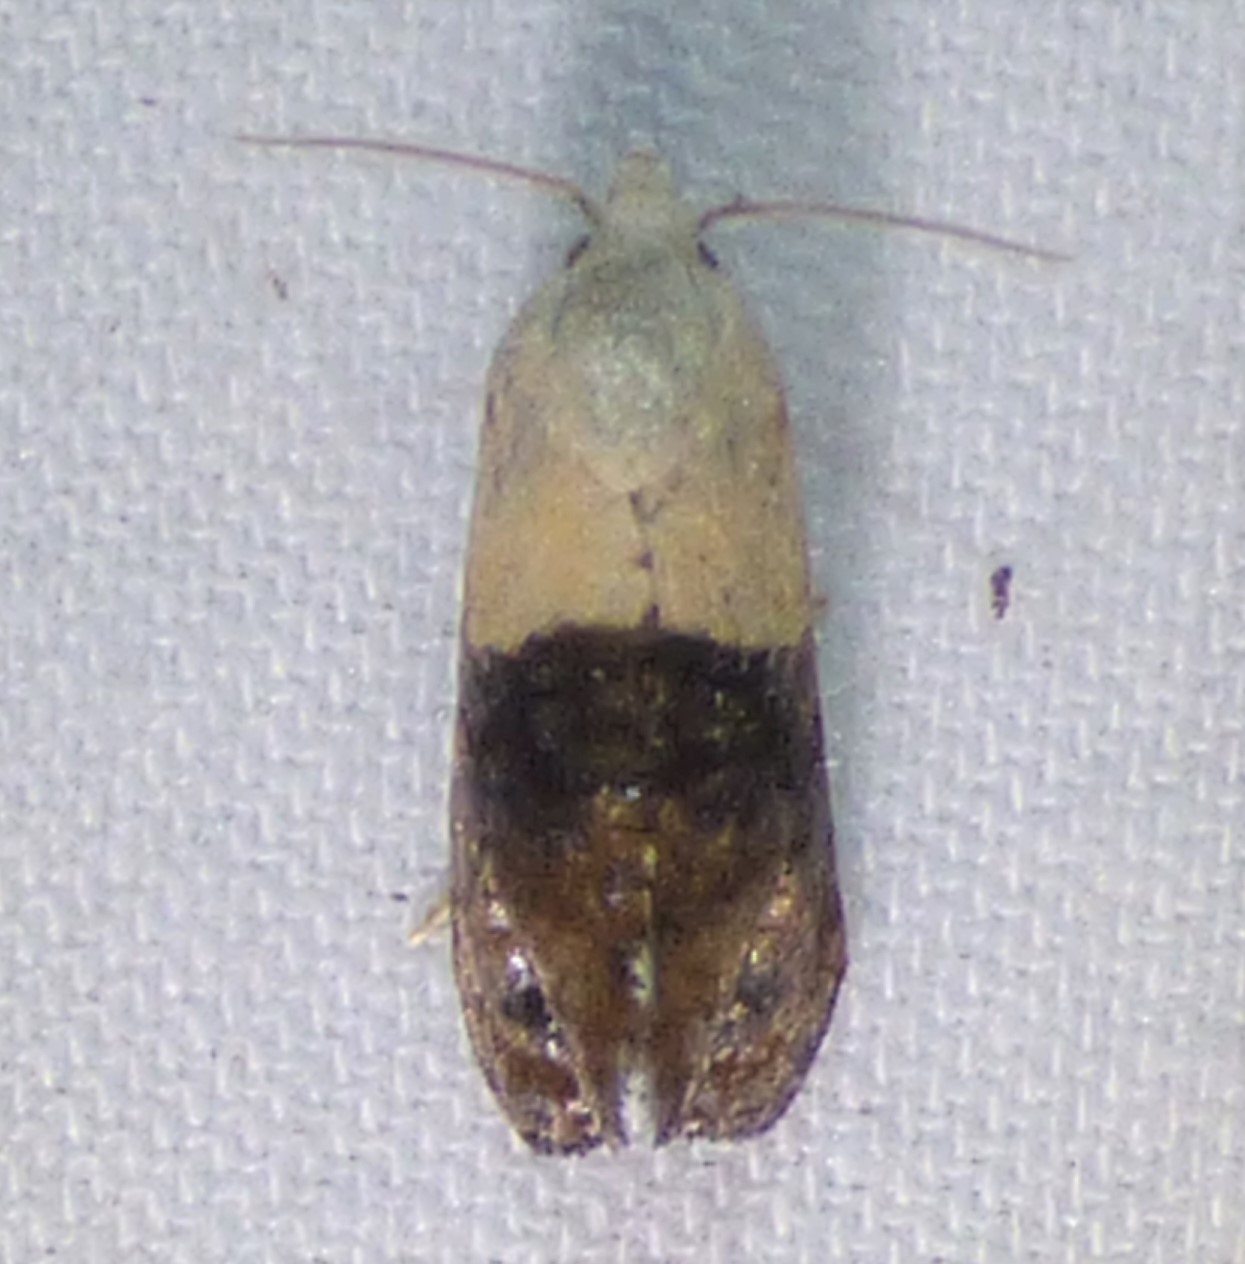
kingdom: Animalia
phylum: Arthropoda
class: Insecta
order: Lepidoptera
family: Tortricidae
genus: Eugnosta
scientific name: Eugnosta erigeronana
